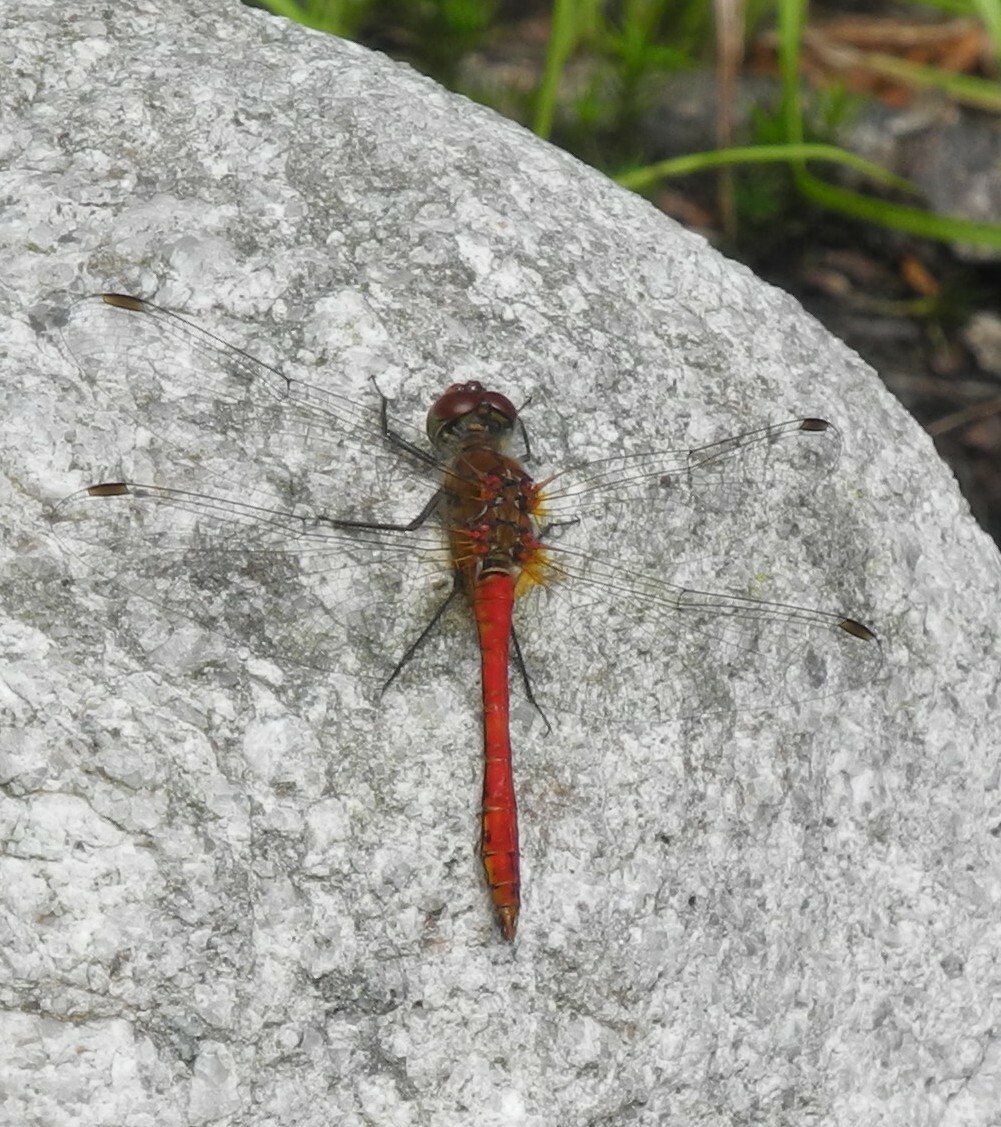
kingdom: Animalia
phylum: Arthropoda
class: Insecta
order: Odonata
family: Libellulidae
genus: Sympetrum
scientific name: Sympetrum sanguineum
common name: Ruddy darter
